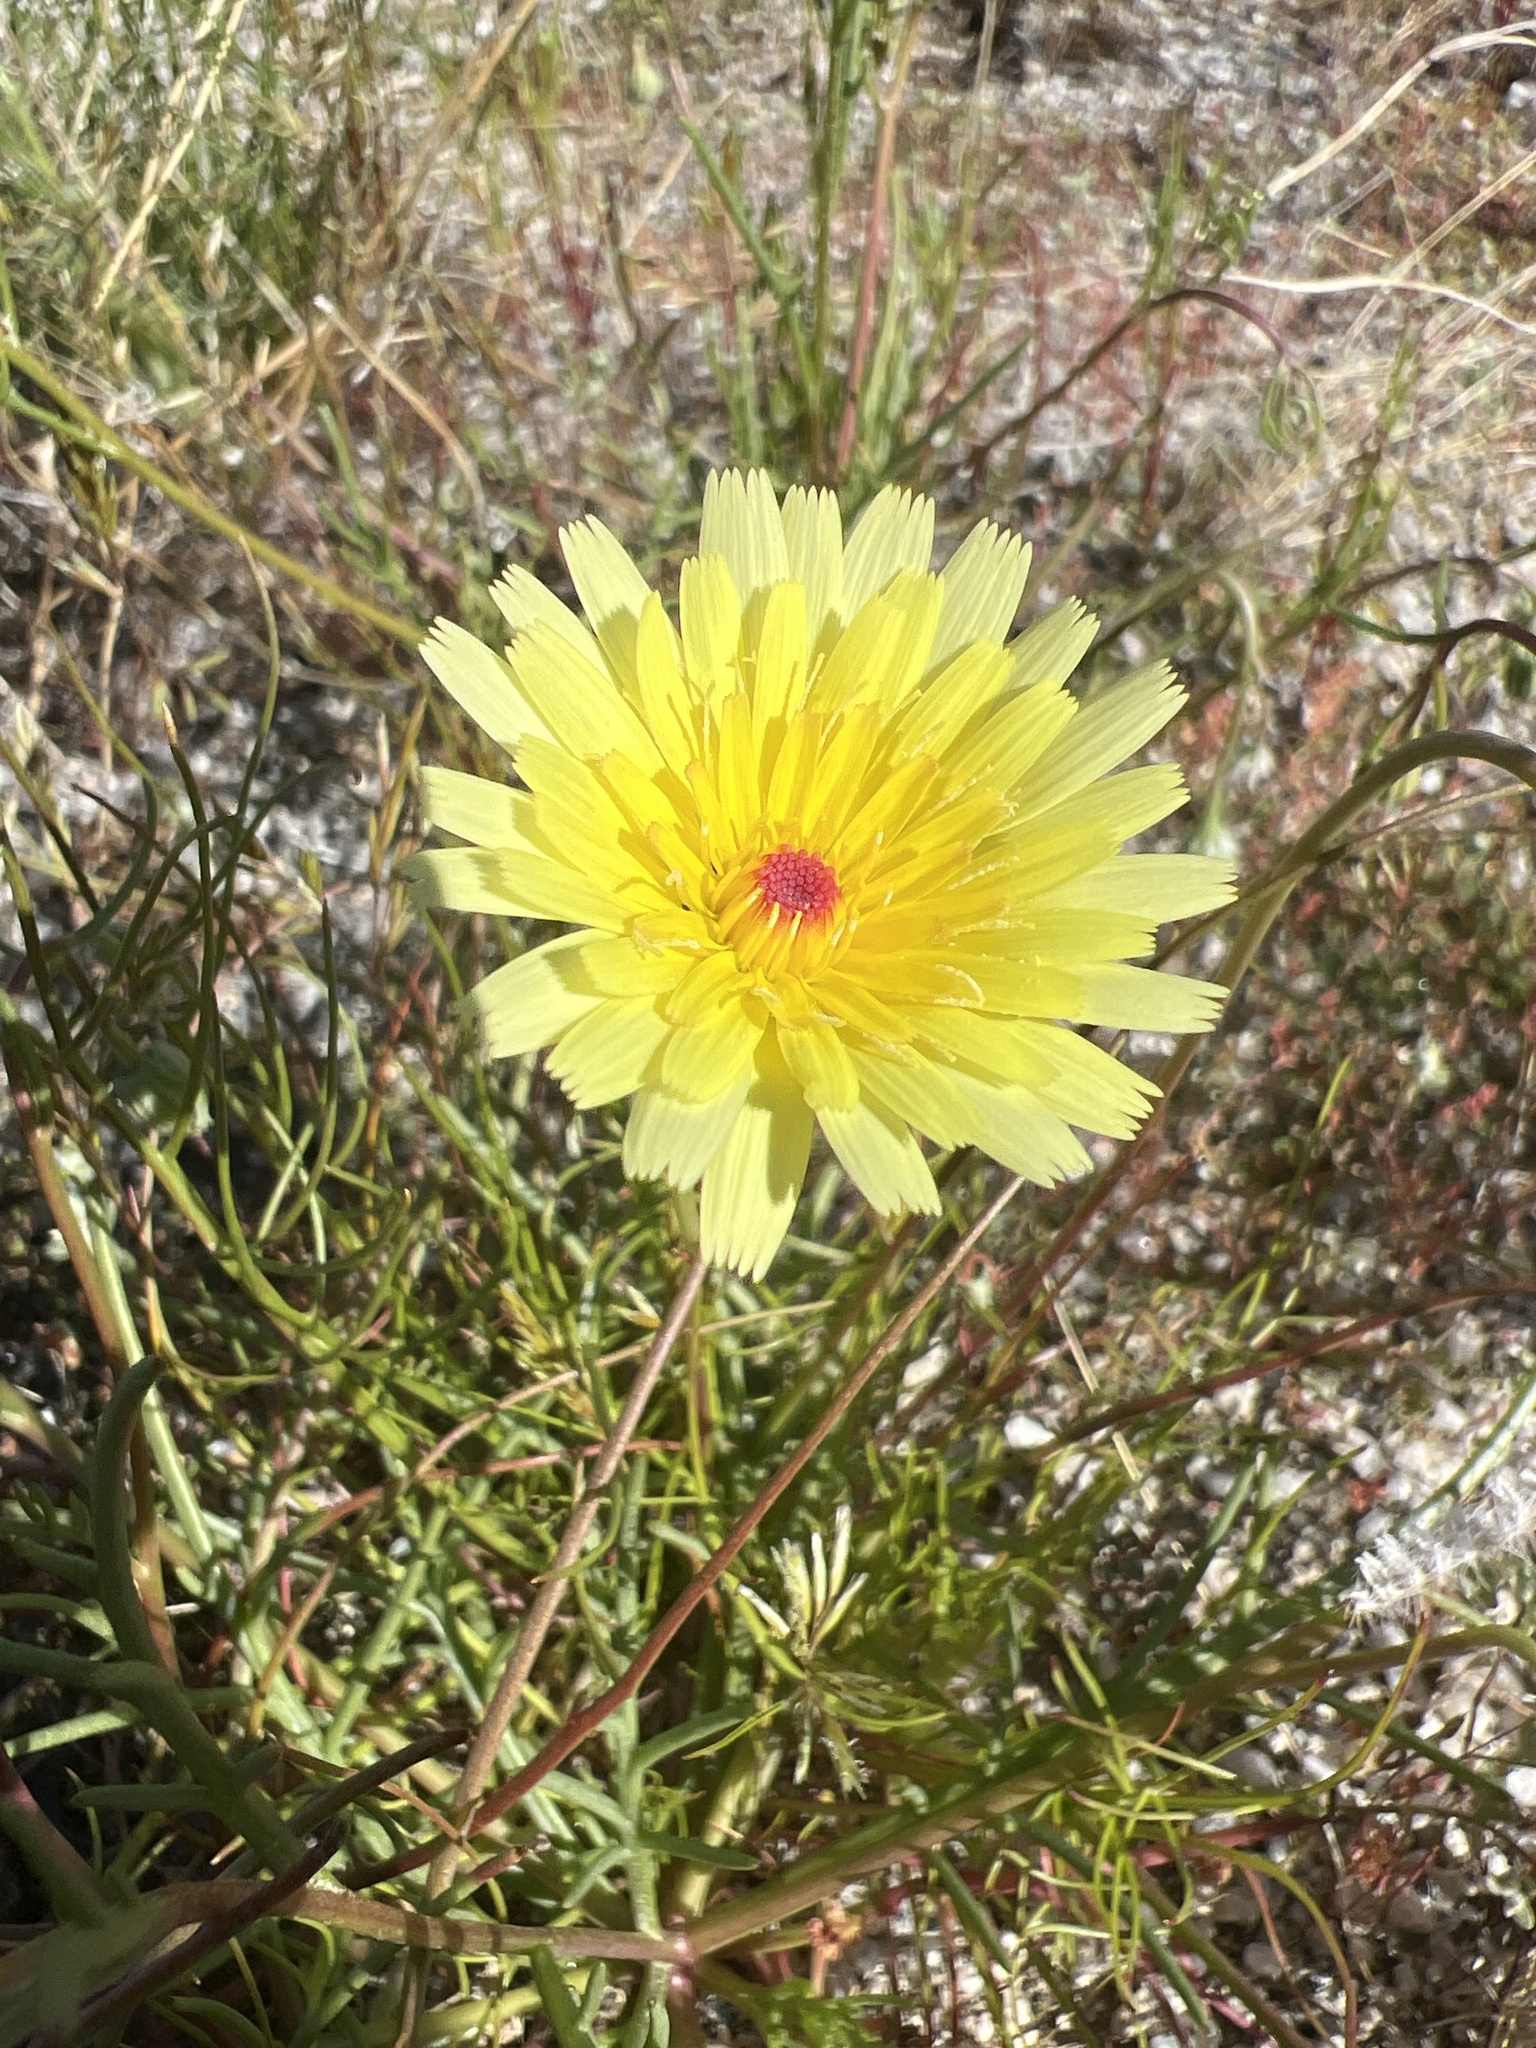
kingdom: Plantae
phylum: Tracheophyta
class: Magnoliopsida
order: Asterales
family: Asteraceae
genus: Malacothrix
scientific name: Malacothrix glabrata
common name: Smooth desert-dandelion
